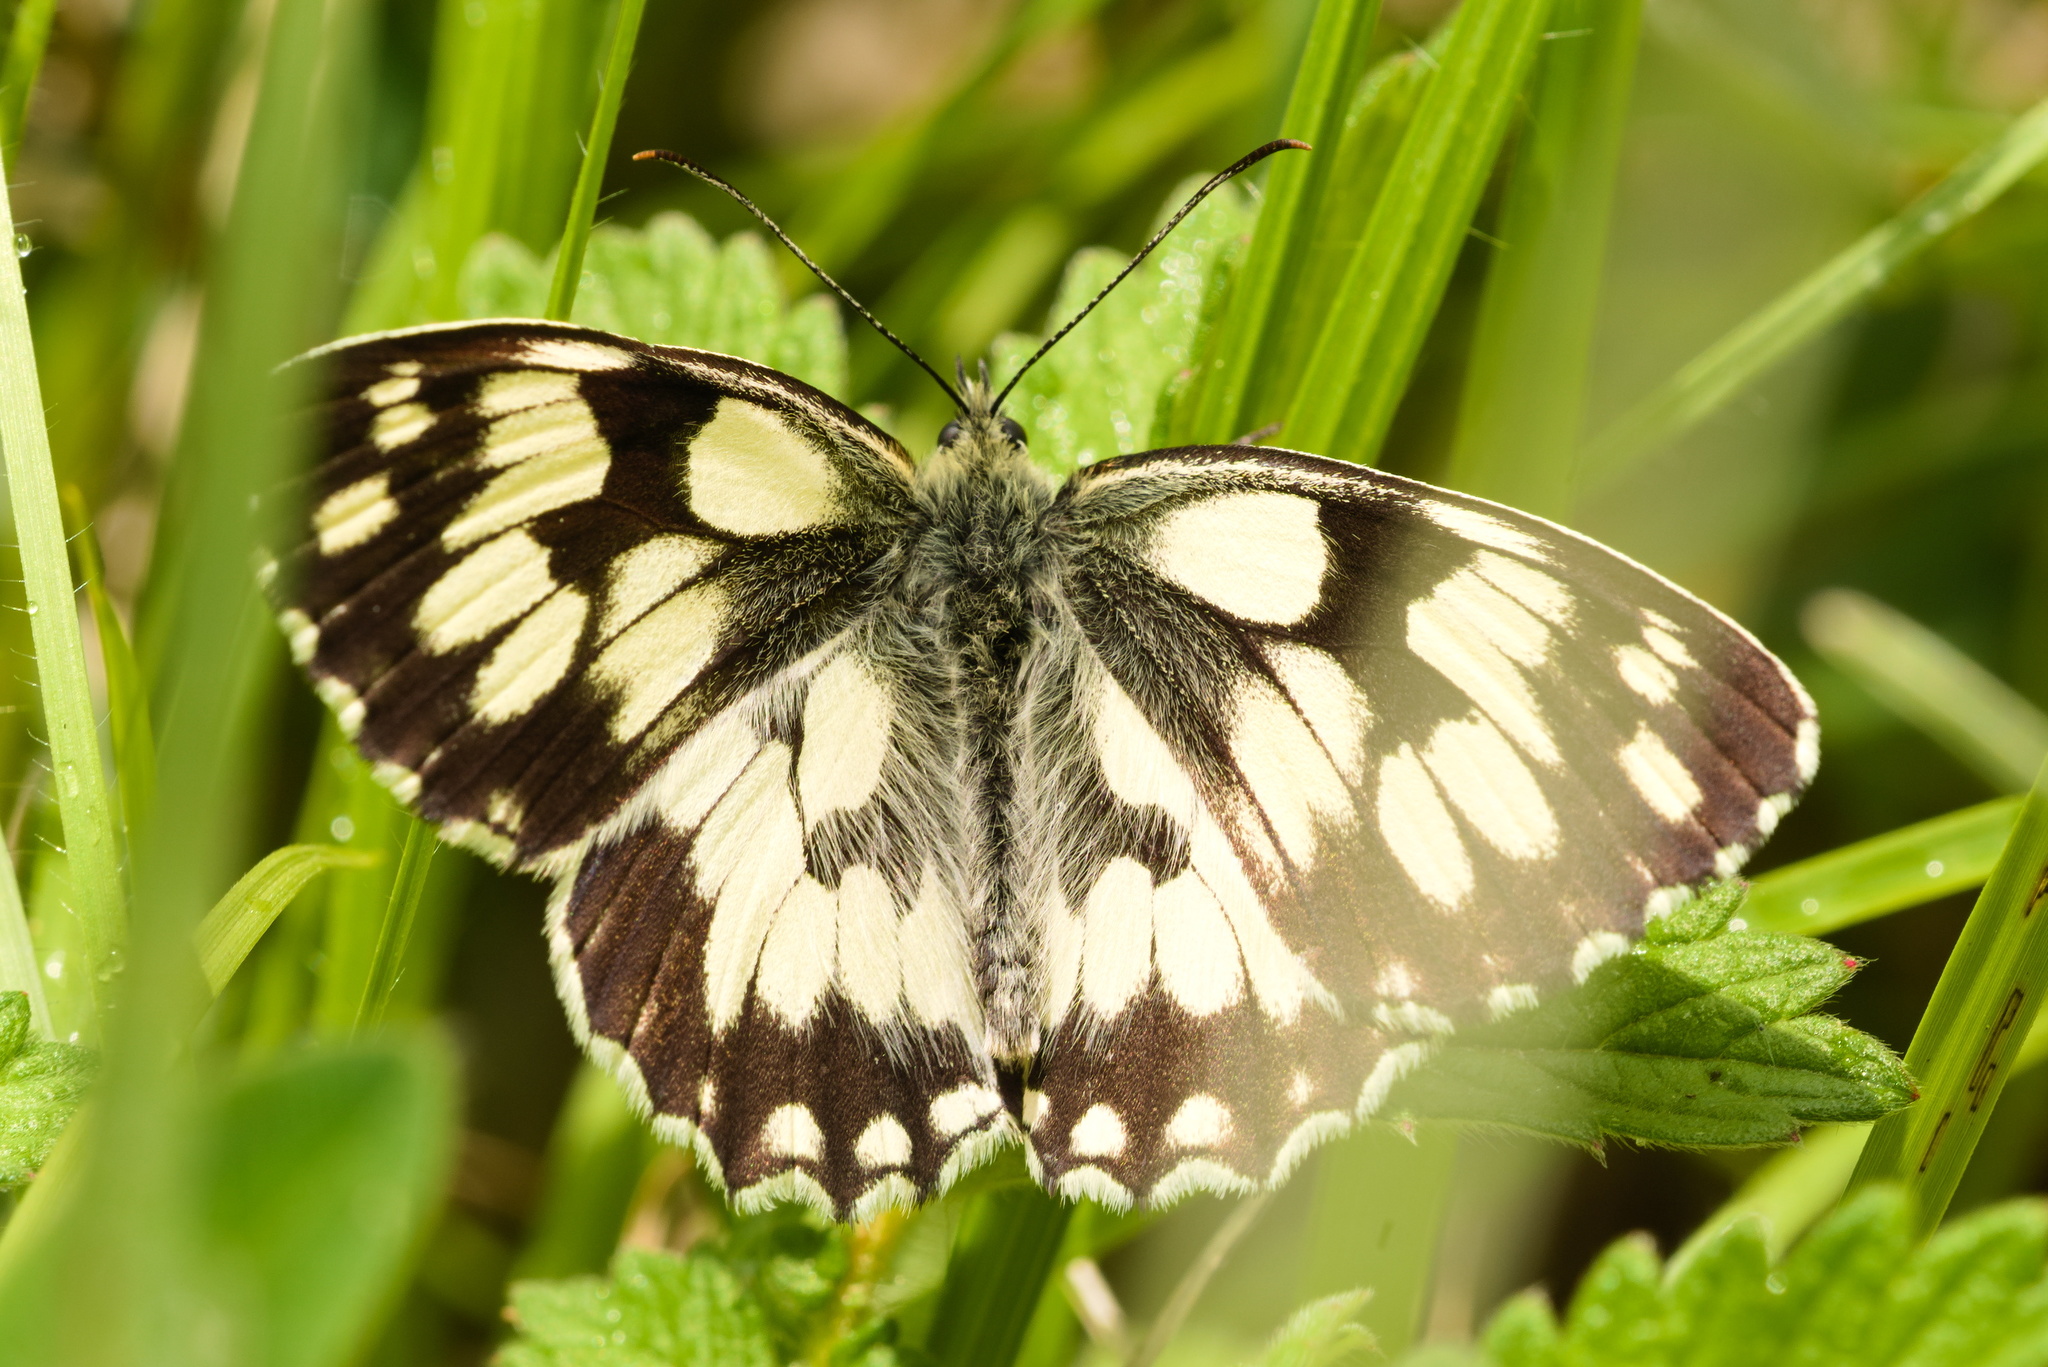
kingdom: Animalia
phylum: Arthropoda
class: Insecta
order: Lepidoptera
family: Nymphalidae
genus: Melanargia
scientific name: Melanargia galathea
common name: Marbled white
